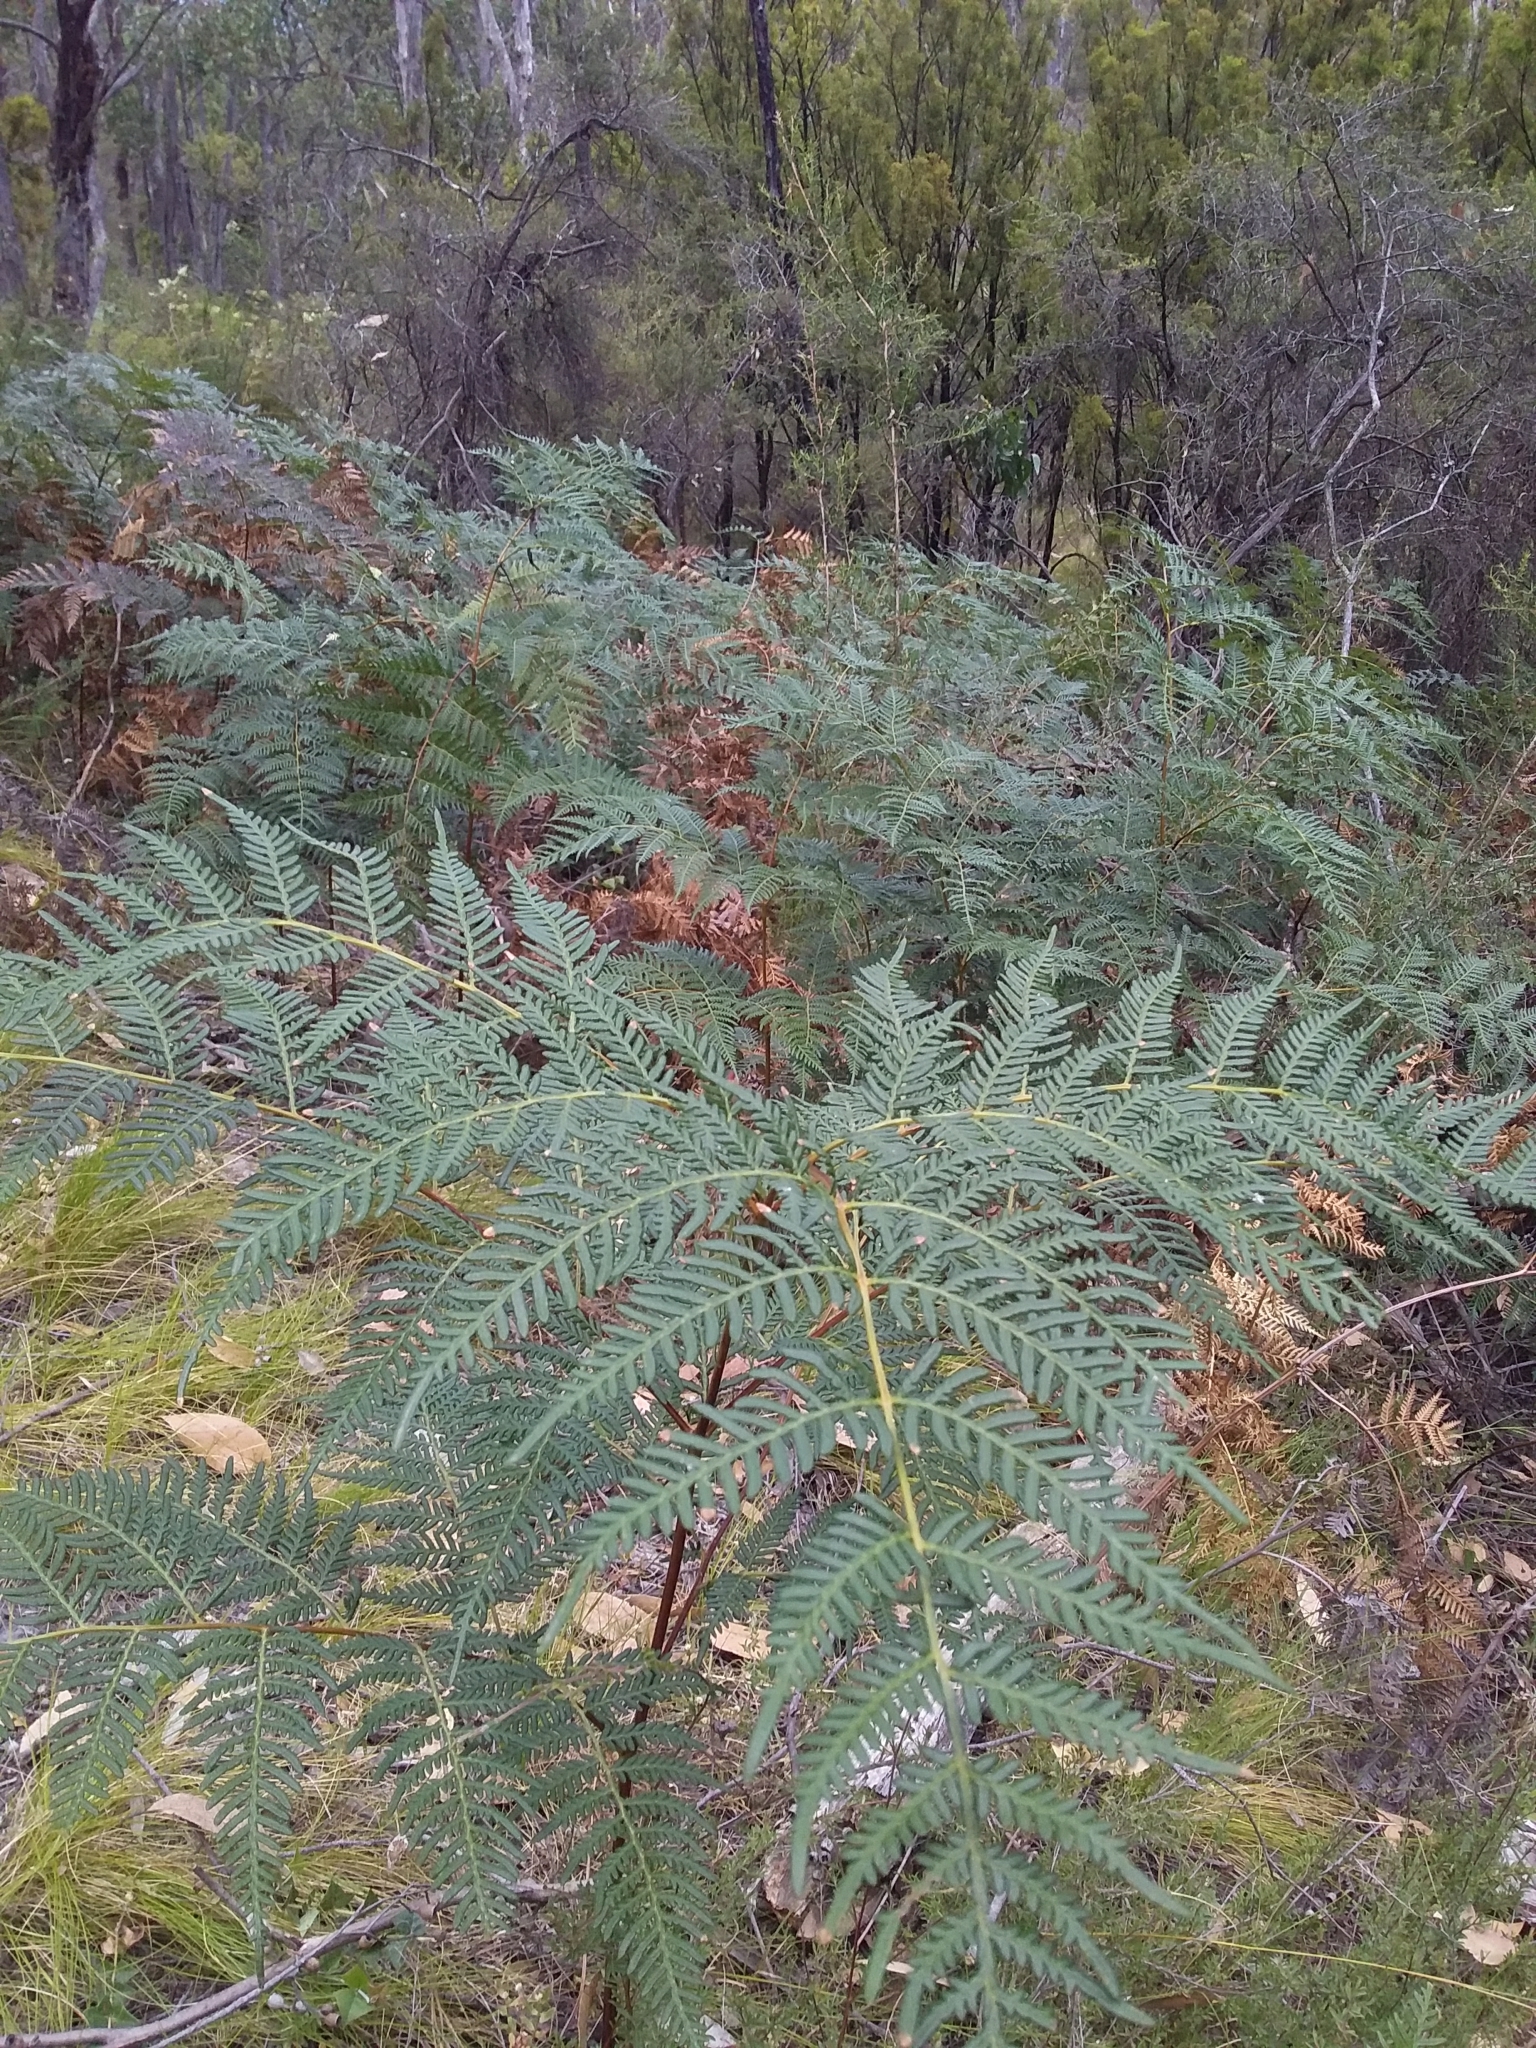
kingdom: Plantae
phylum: Tracheophyta
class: Polypodiopsida
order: Polypodiales
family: Dennstaedtiaceae
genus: Pteridium
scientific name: Pteridium esculentum
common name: Bracken fern
